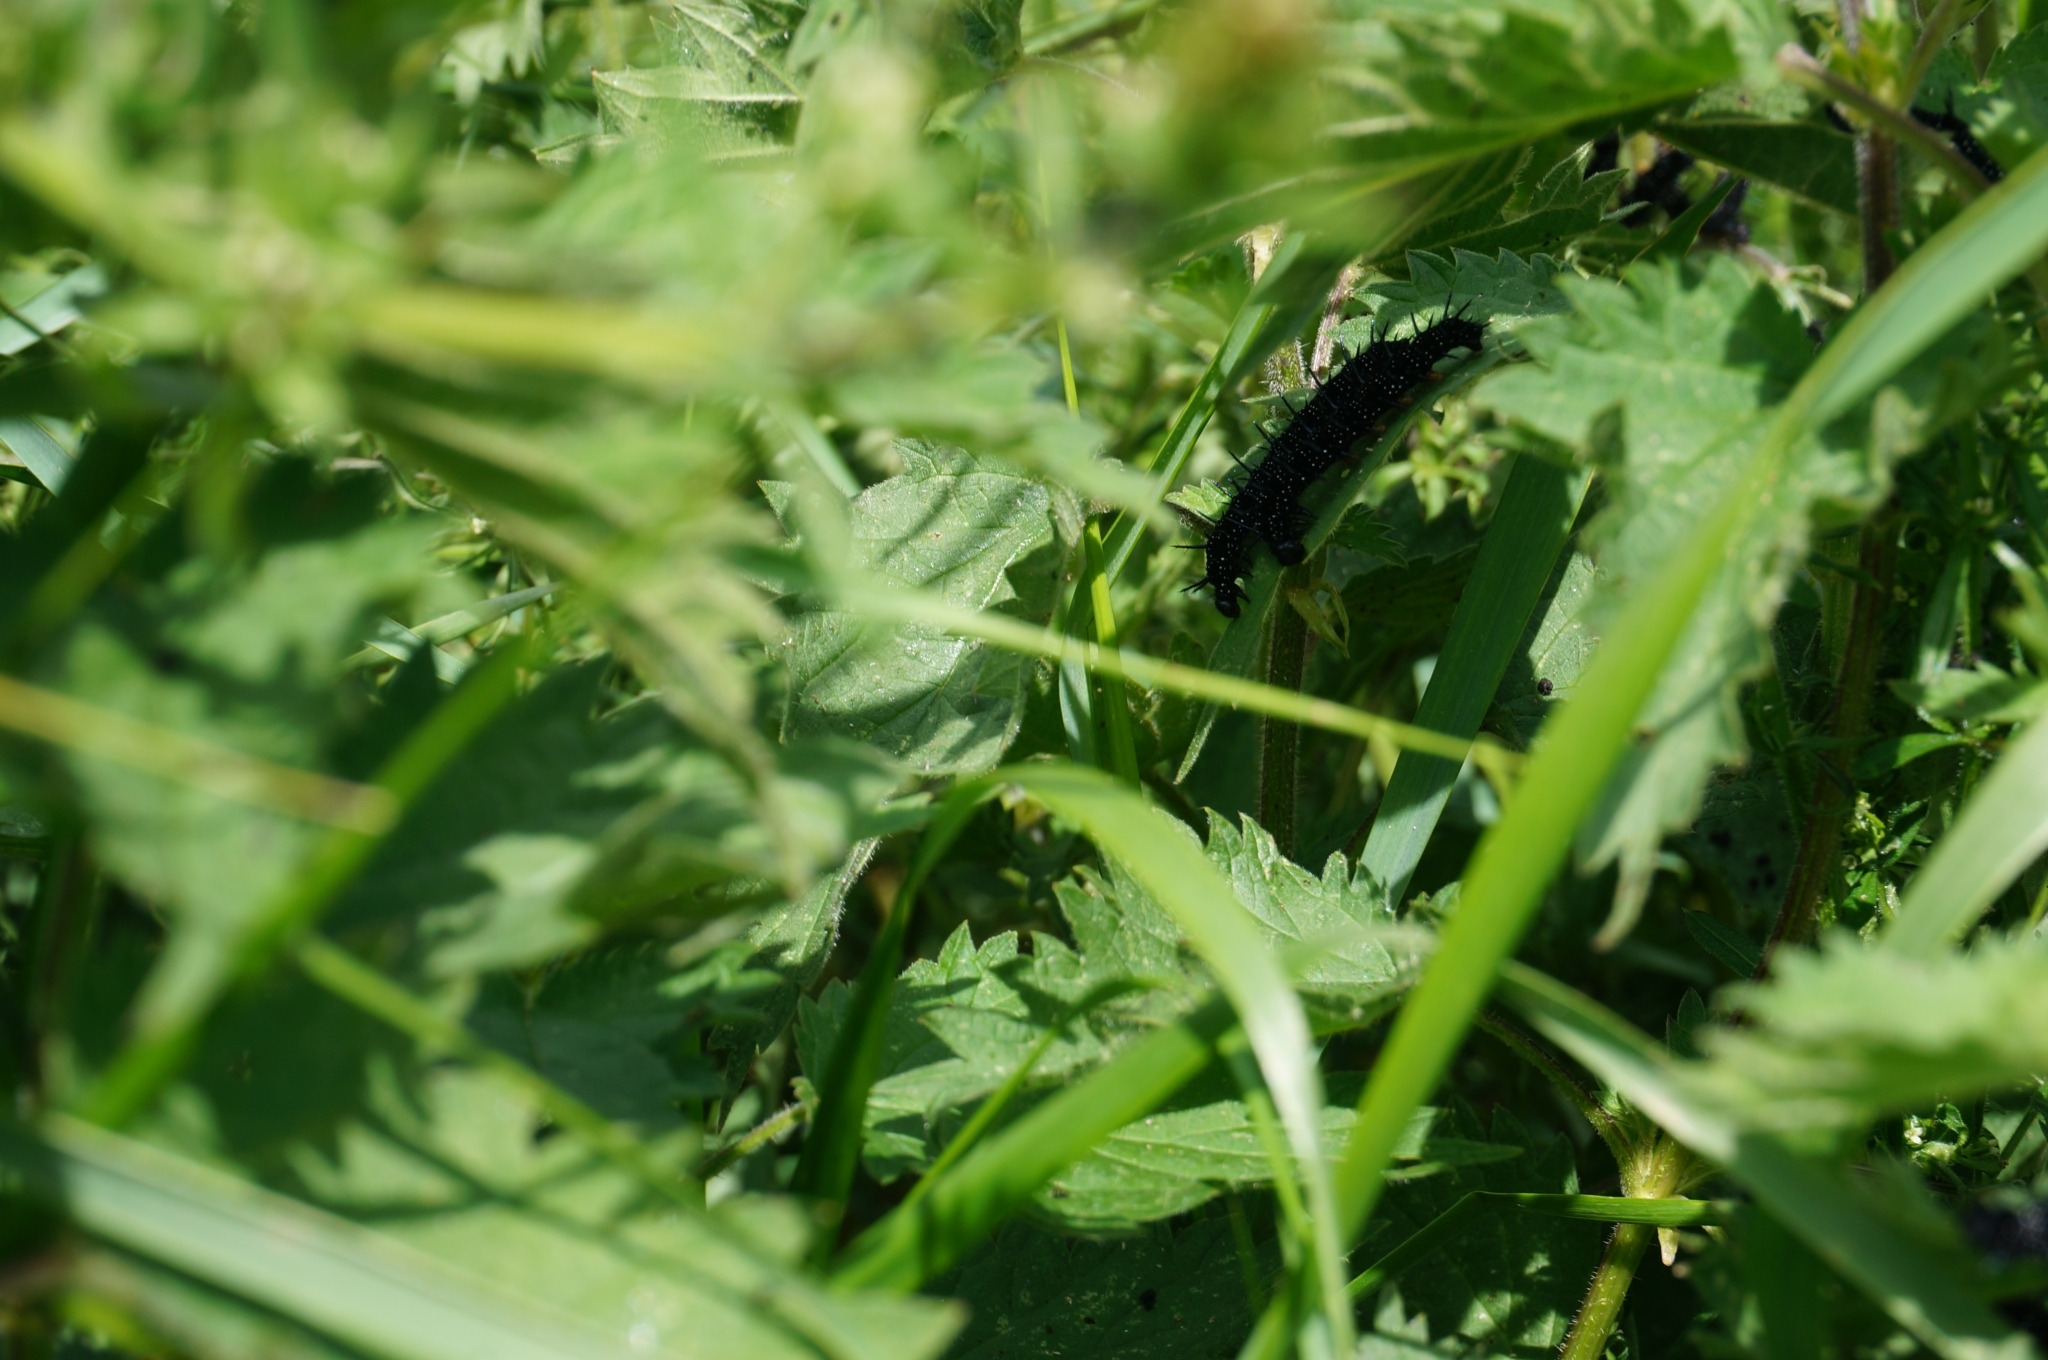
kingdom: Animalia
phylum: Arthropoda
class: Insecta
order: Lepidoptera
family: Nymphalidae
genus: Aglais
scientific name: Aglais io
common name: Peacock
